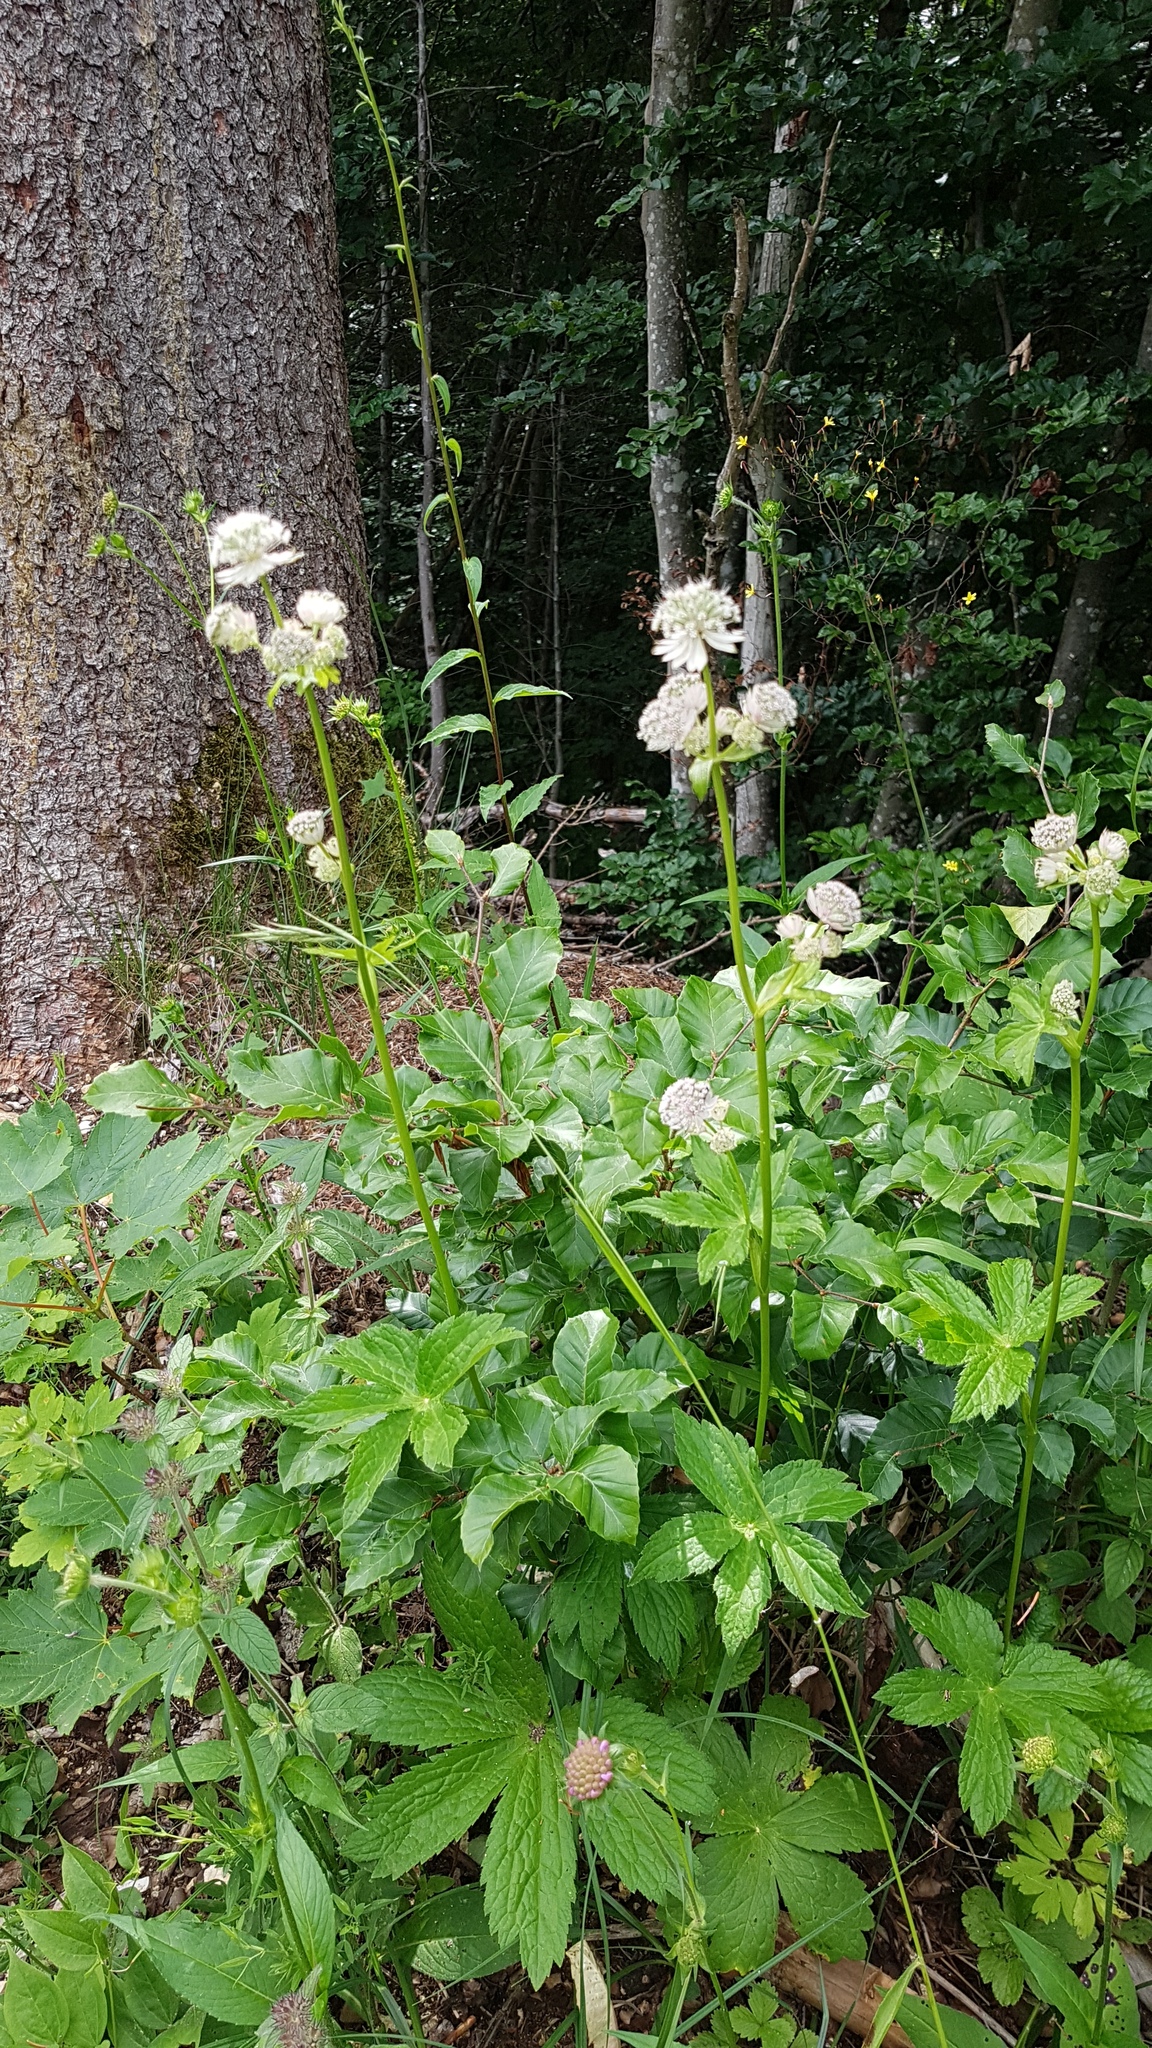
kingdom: Plantae
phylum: Tracheophyta
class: Magnoliopsida
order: Apiales
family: Apiaceae
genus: Astrantia
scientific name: Astrantia major
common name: Greater masterwort
